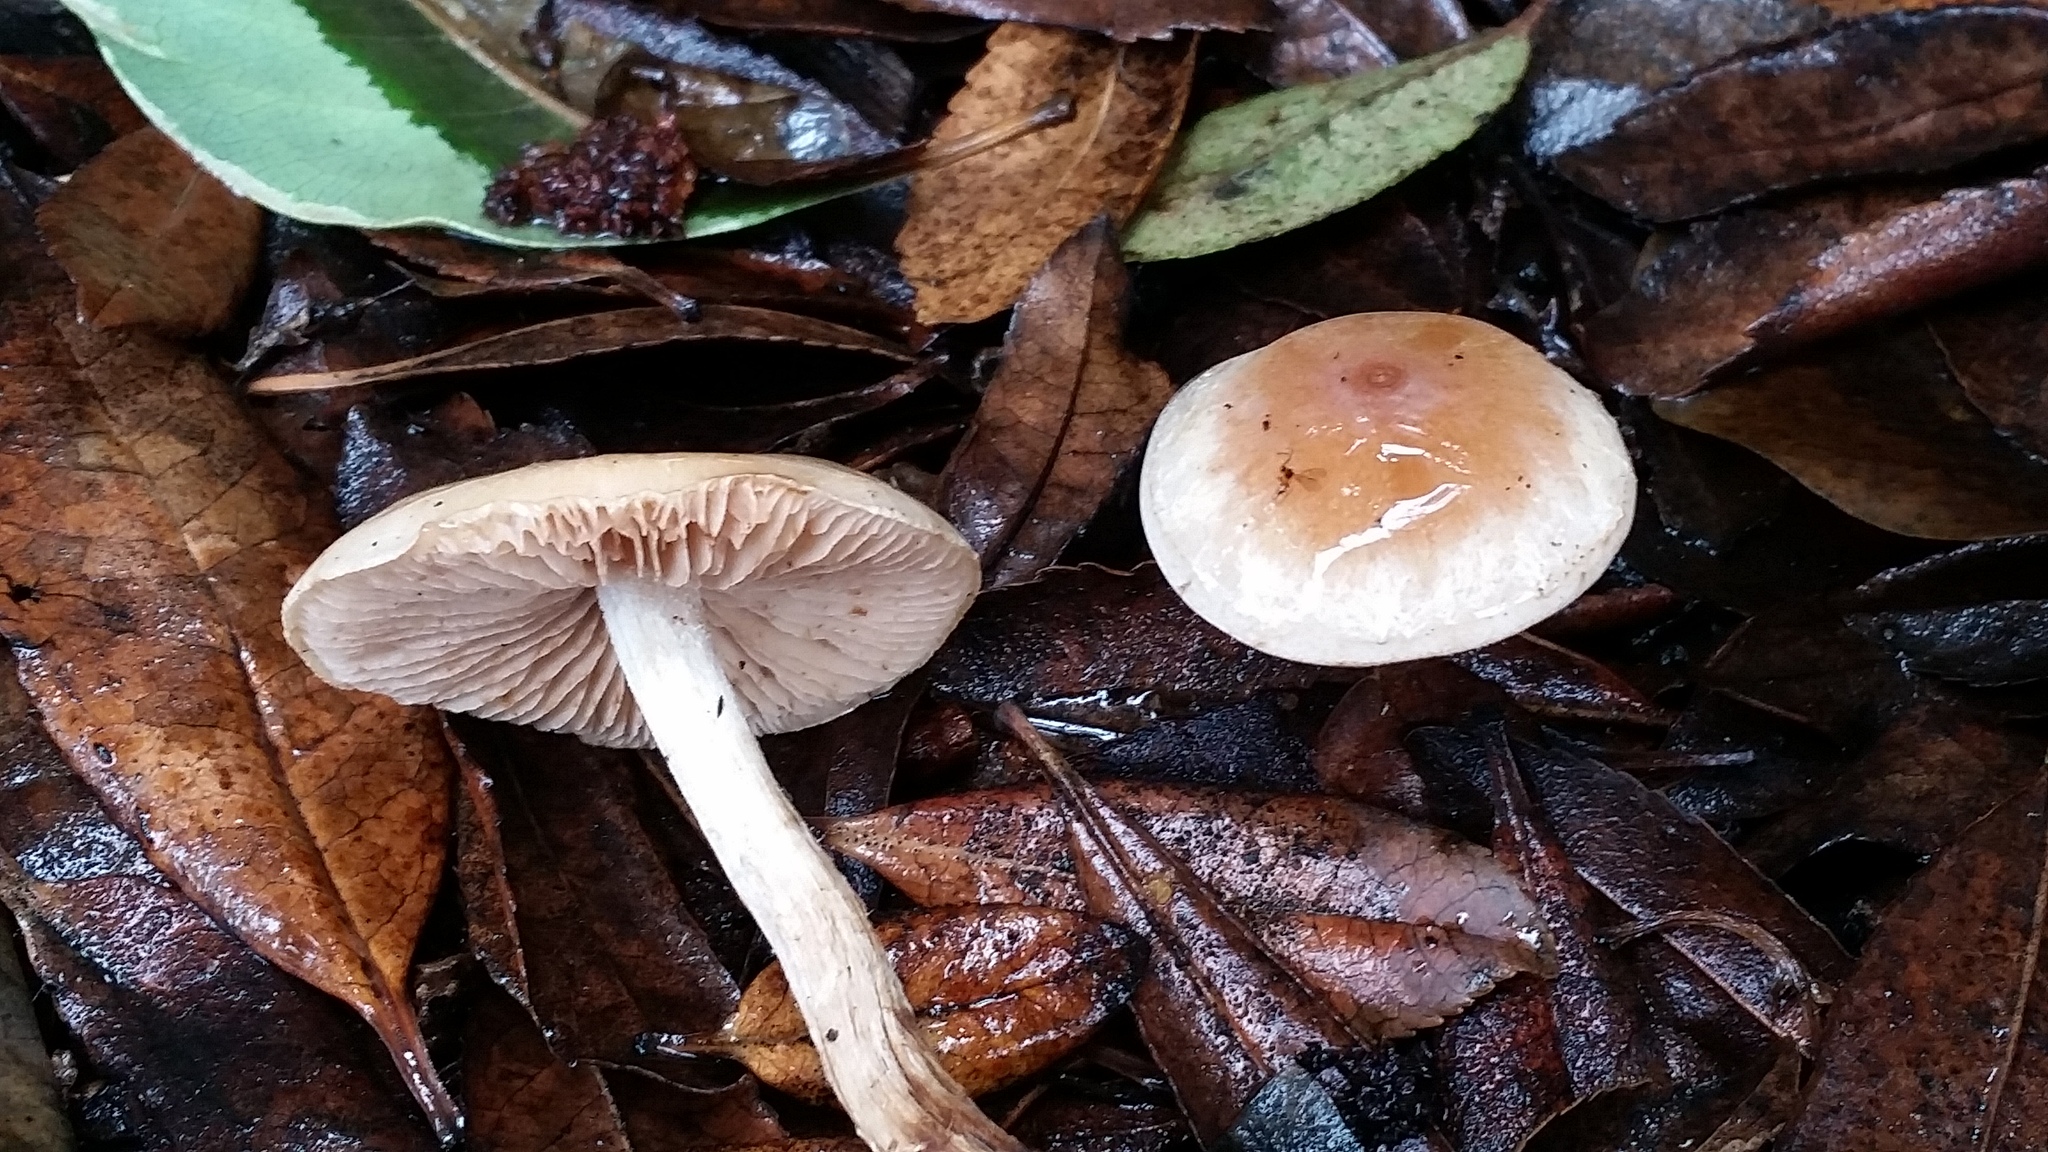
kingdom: Fungi
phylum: Basidiomycota
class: Agaricomycetes
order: Agaricales
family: Hymenogastraceae
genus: Hebeloma
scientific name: Hebeloma mesophaeum
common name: Veiled poisonpie
